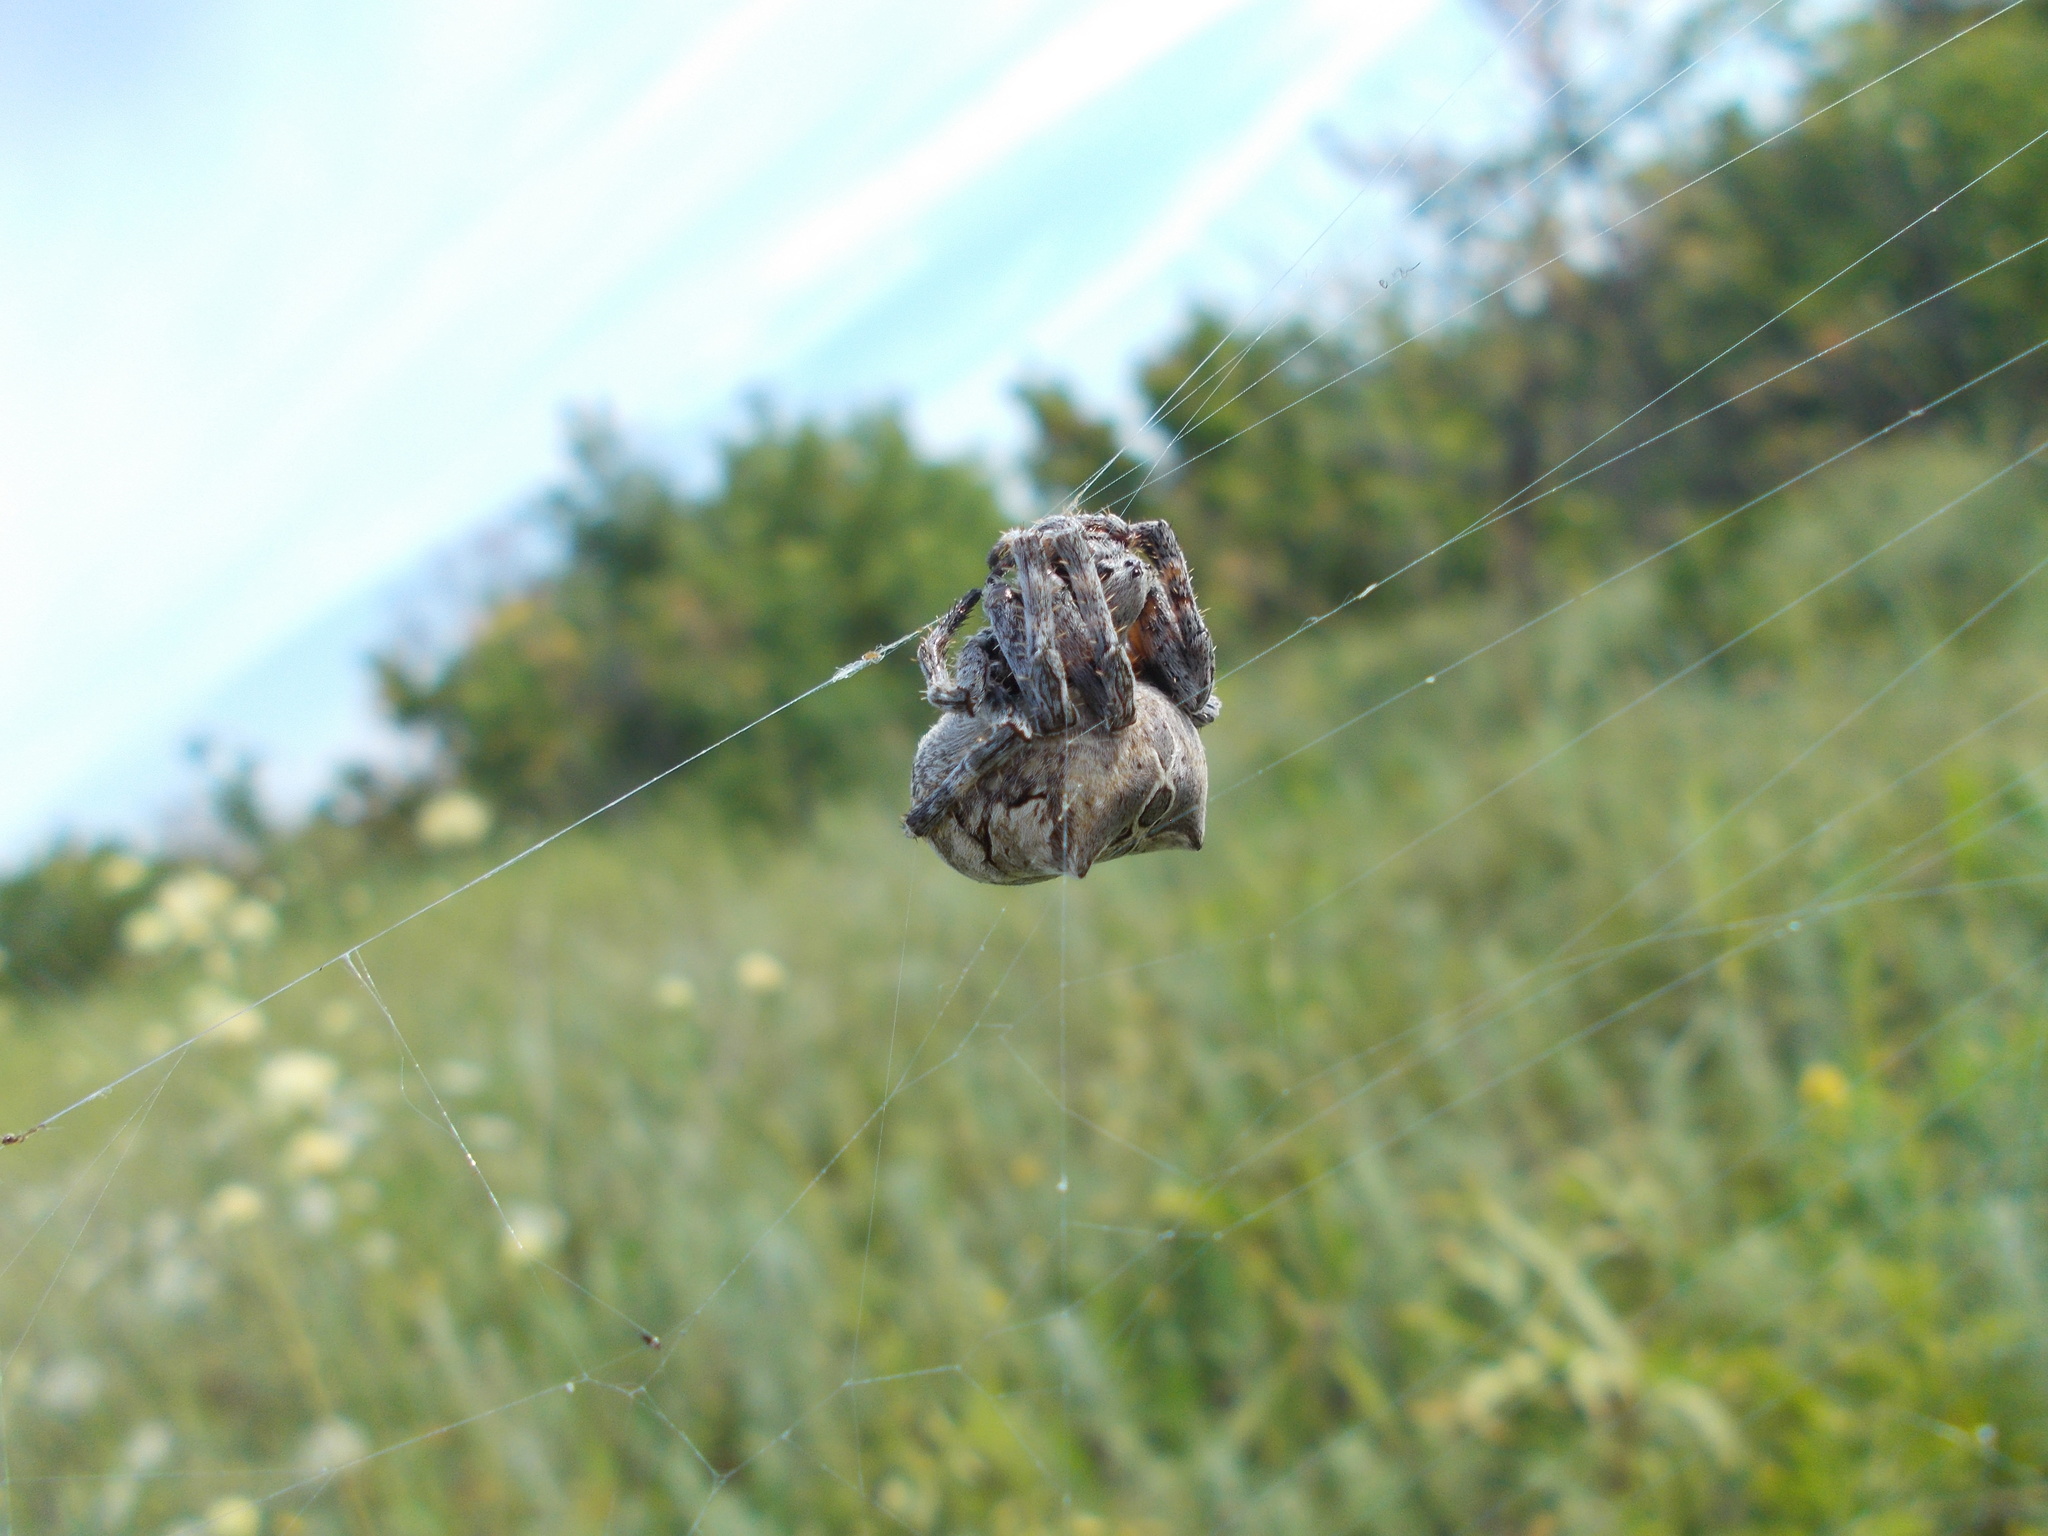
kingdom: Animalia
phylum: Arthropoda
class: Arachnida
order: Araneae
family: Araneidae
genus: Araneus
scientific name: Araneus grossus
